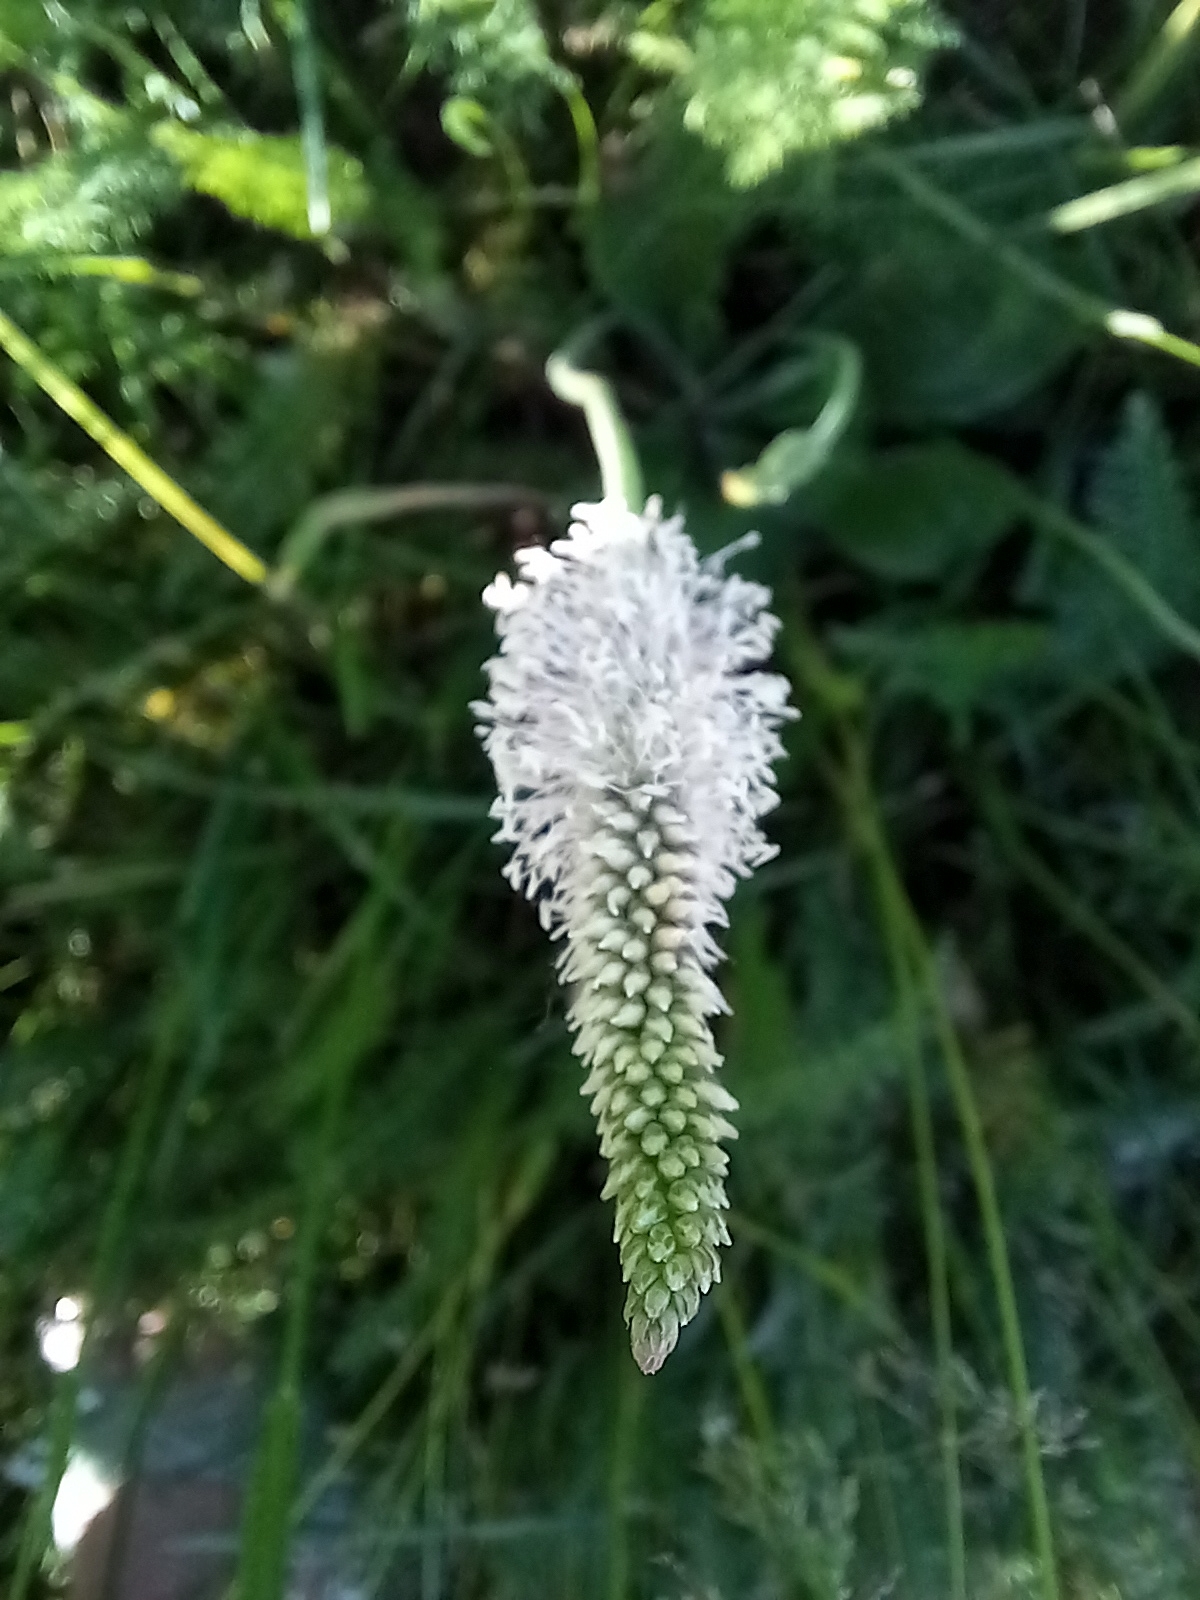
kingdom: Plantae
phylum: Tracheophyta
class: Magnoliopsida
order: Lamiales
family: Plantaginaceae
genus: Plantago
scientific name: Plantago media
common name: Hoary plantain
